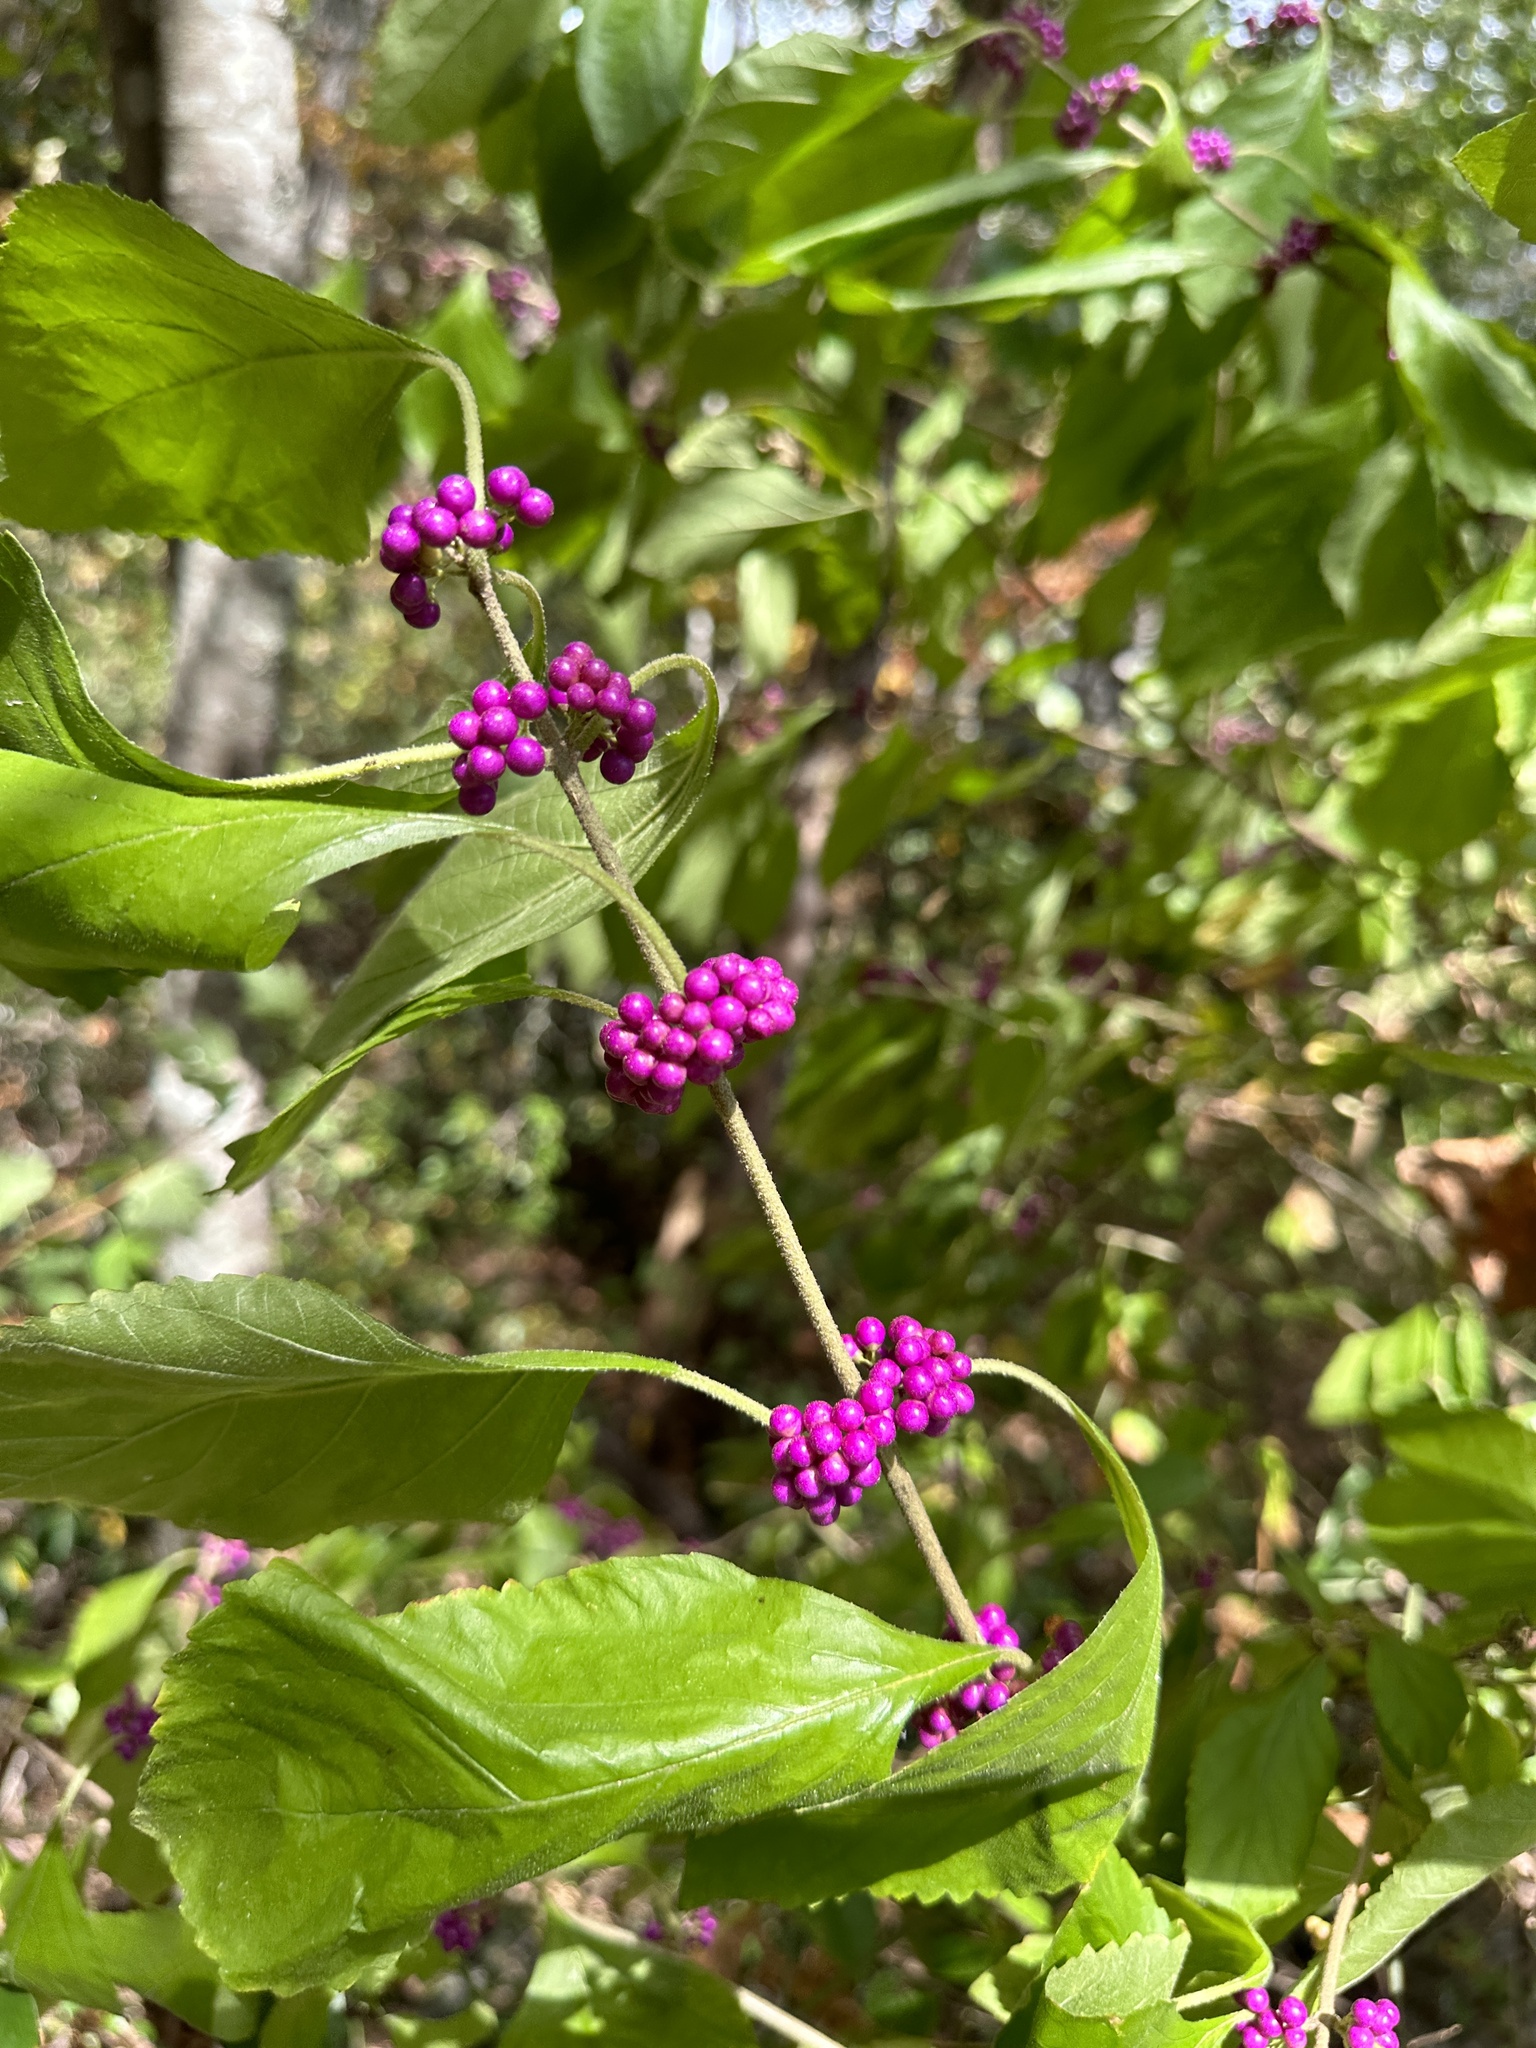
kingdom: Plantae
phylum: Tracheophyta
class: Magnoliopsida
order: Lamiales
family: Lamiaceae
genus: Callicarpa
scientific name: Callicarpa americana
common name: American beautyberry
